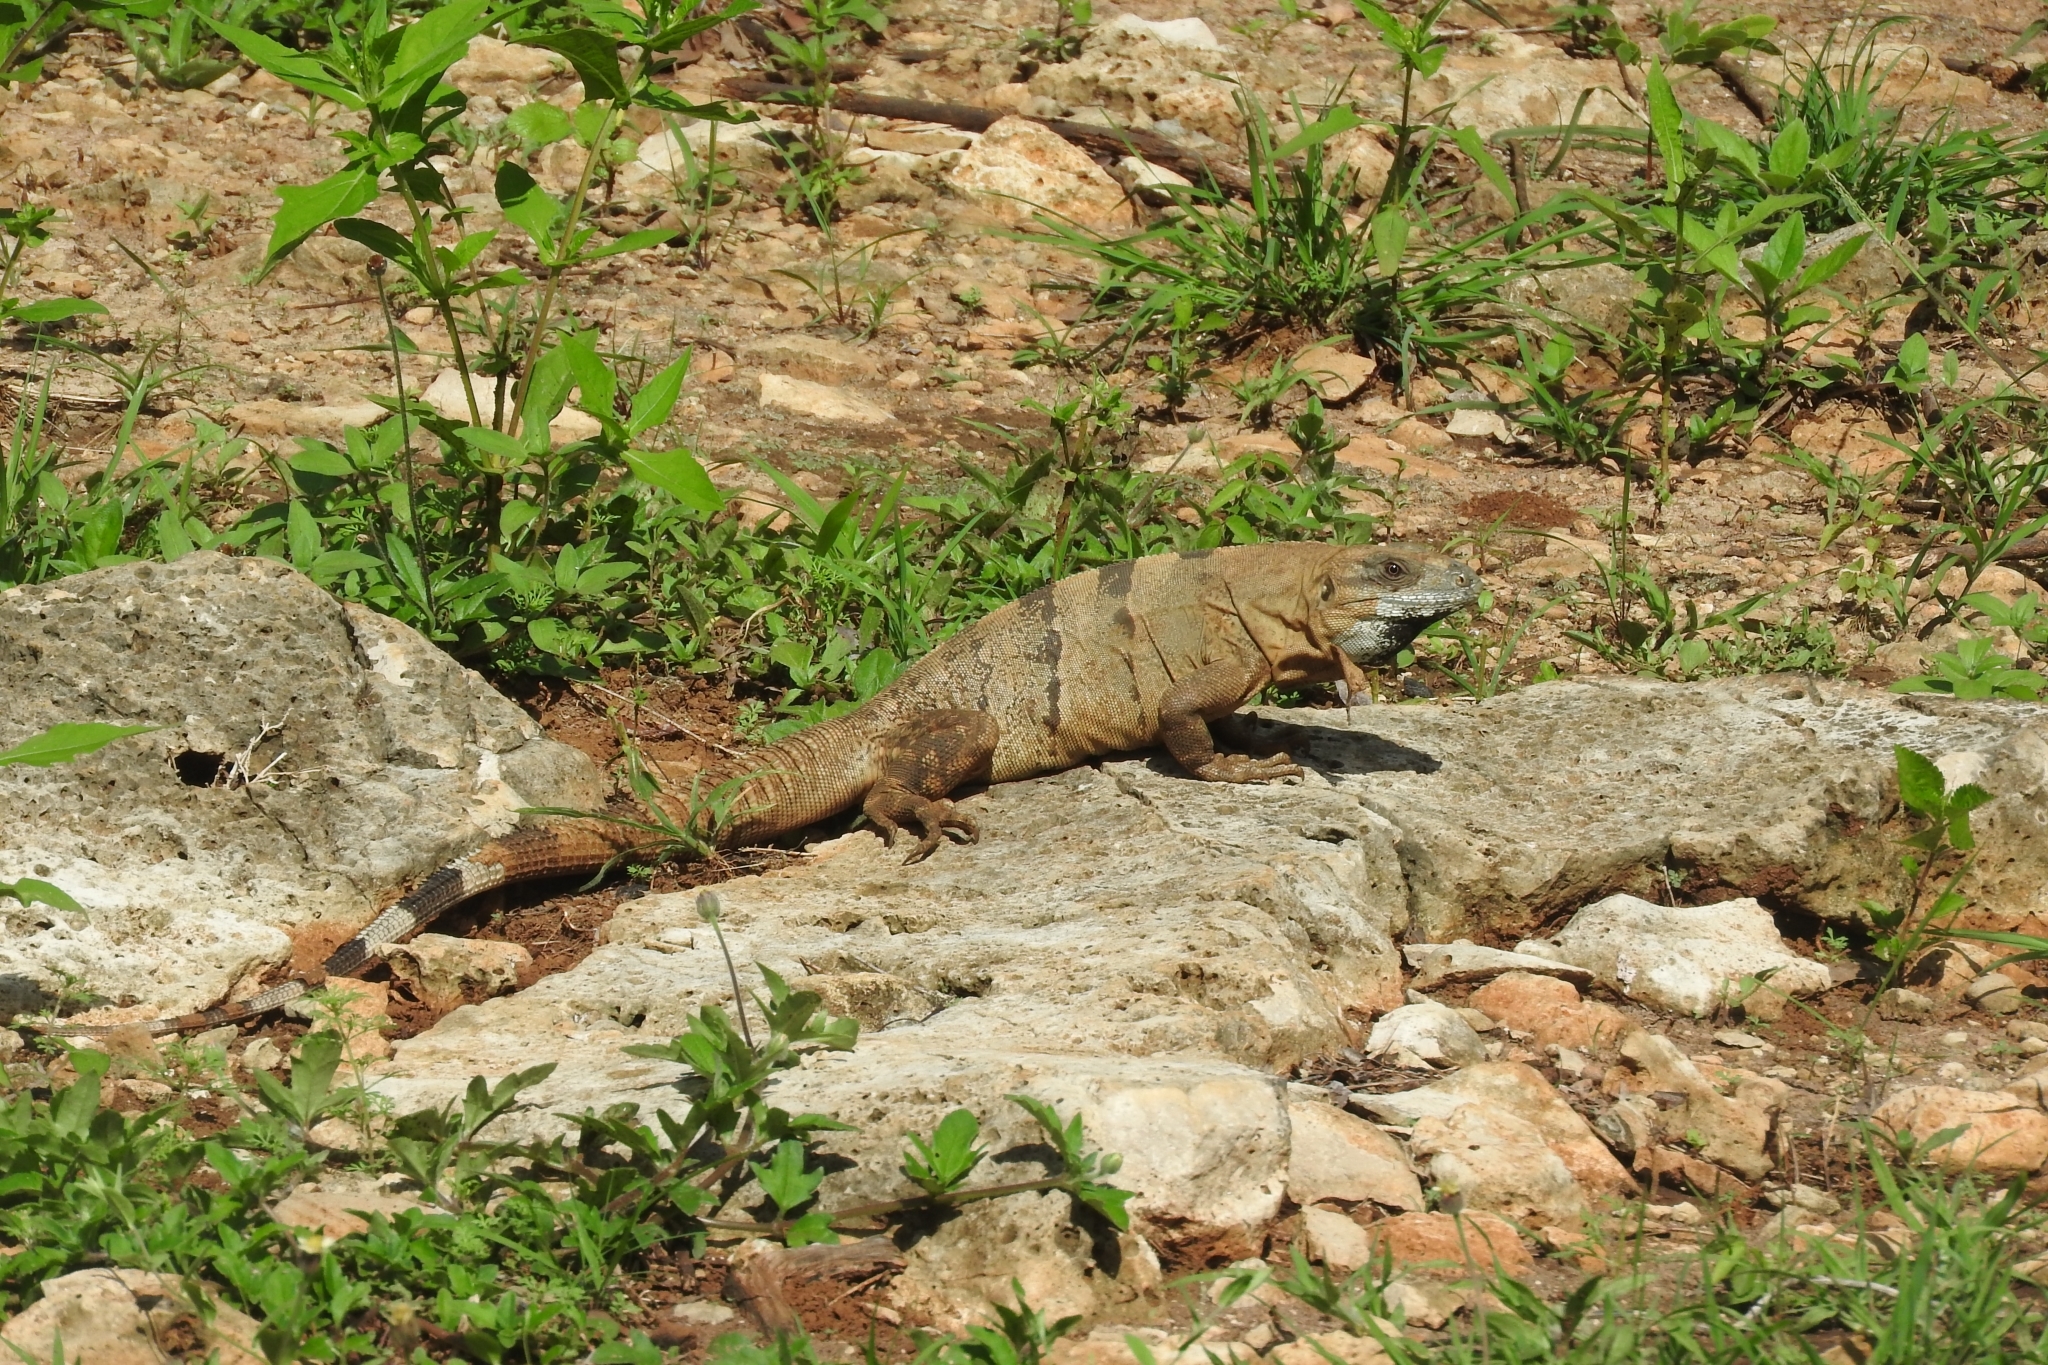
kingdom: Animalia
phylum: Chordata
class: Squamata
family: Iguanidae
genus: Ctenosaura
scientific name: Ctenosaura similis
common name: Black spiny-tailed iguana
